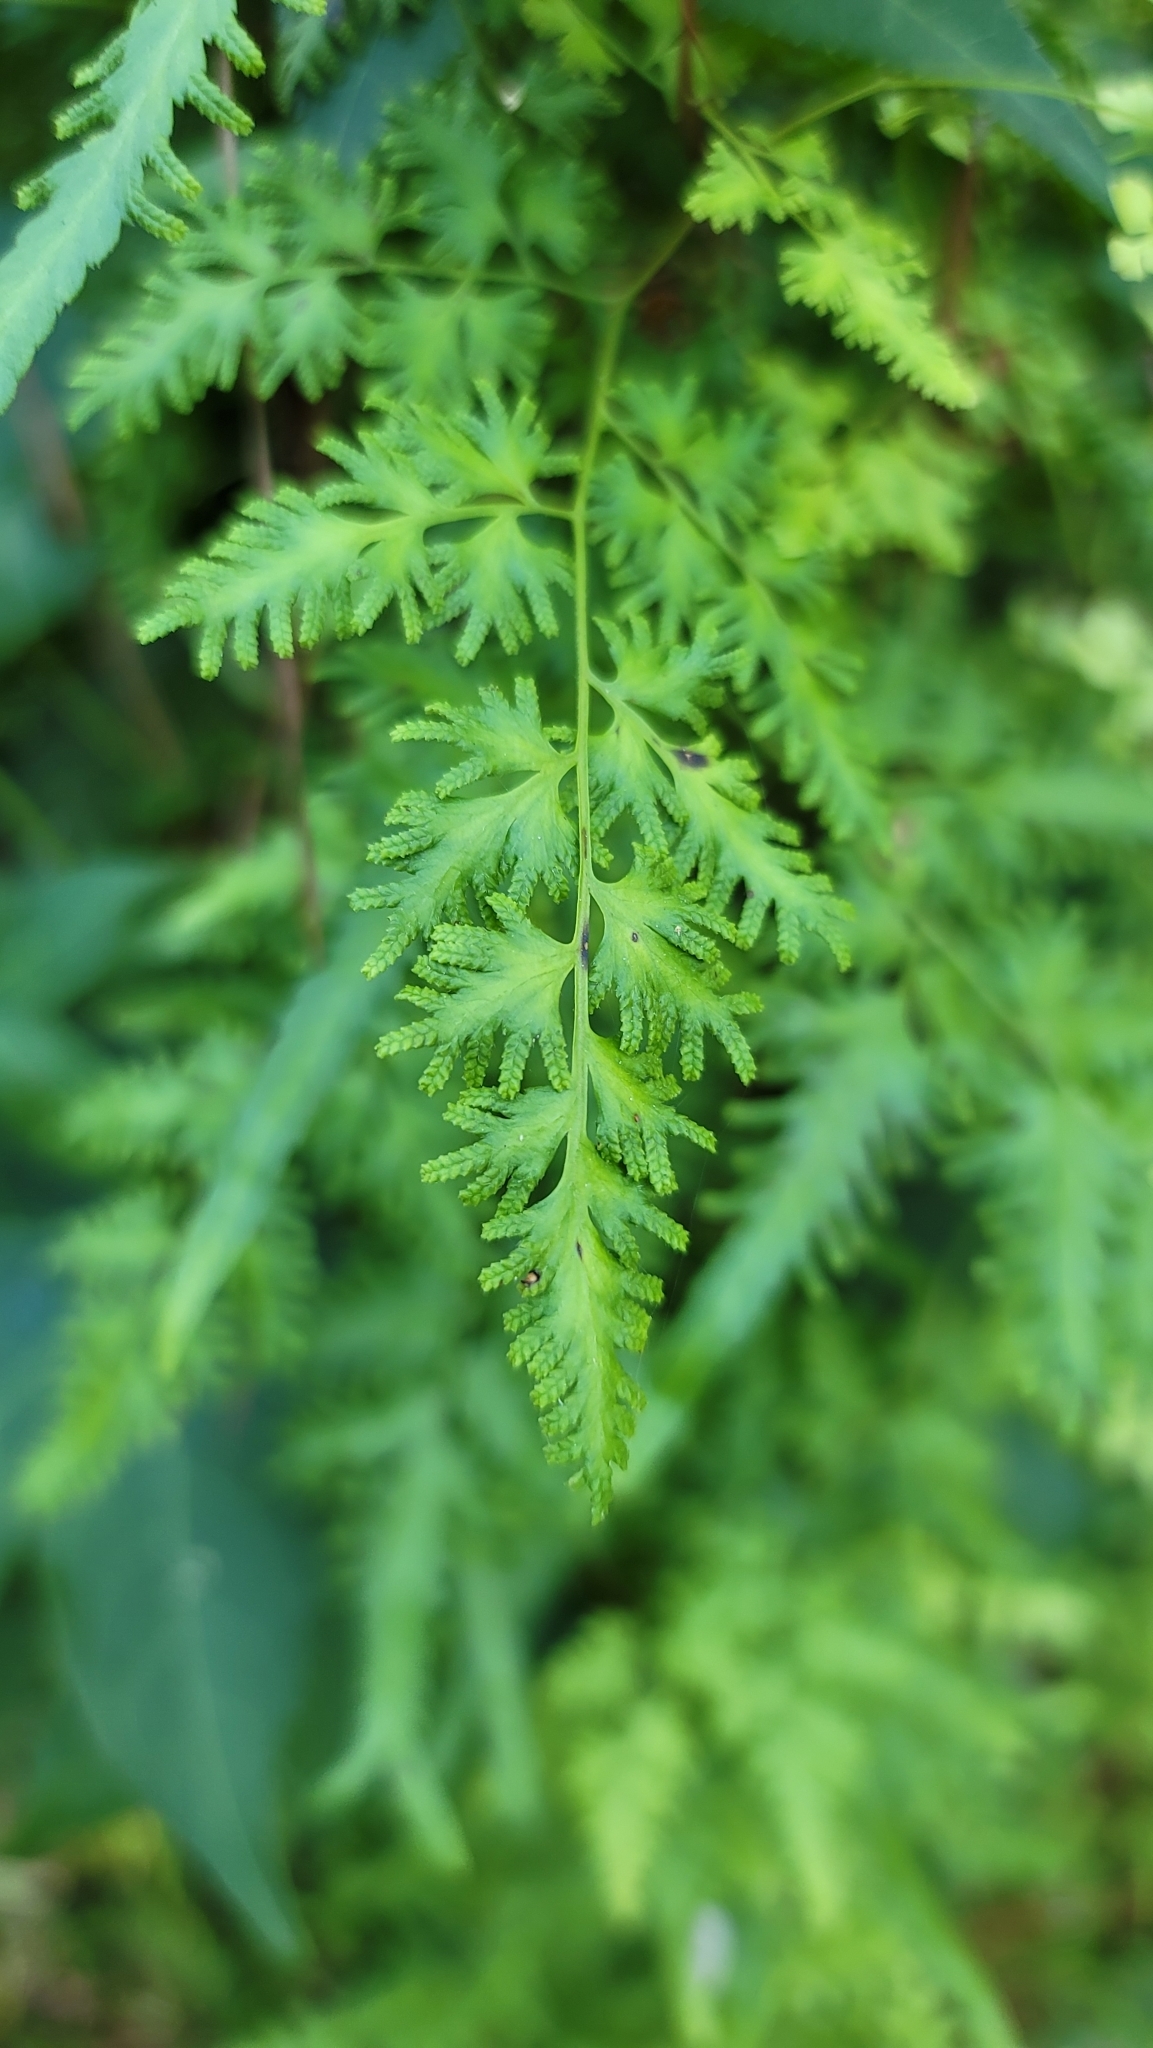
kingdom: Plantae
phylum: Tracheophyta
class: Polypodiopsida
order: Schizaeales
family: Lygodiaceae
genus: Lygodium
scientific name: Lygodium japonicum
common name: Japanese climbing fern
